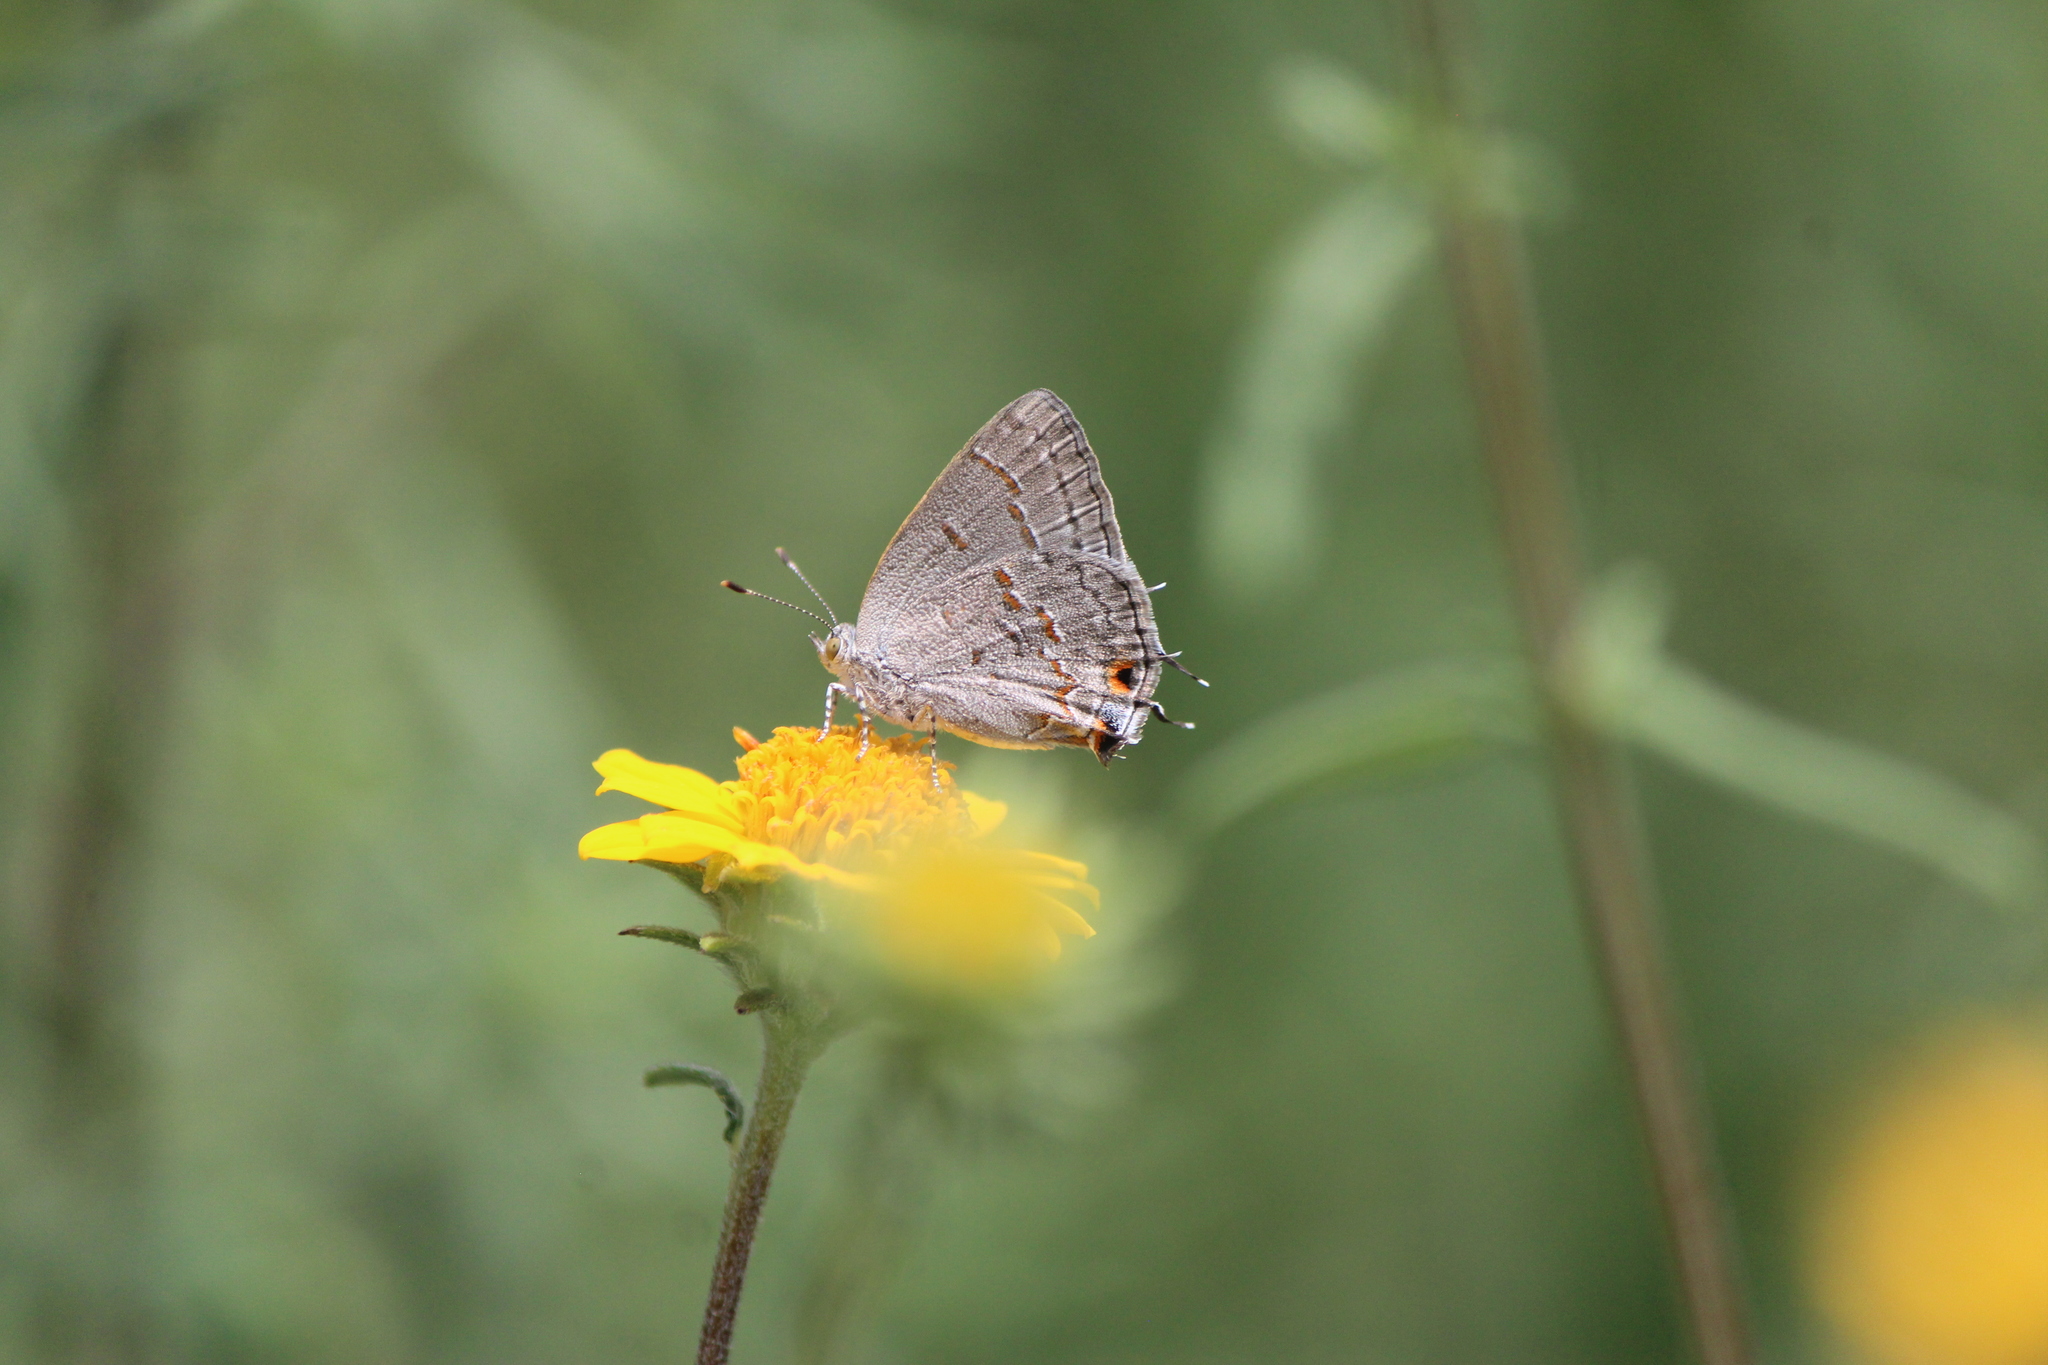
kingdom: Animalia
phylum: Arthropoda
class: Insecta
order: Lepidoptera
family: Lycaenidae
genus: Ministrymon
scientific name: Ministrymon leda
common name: Leda ministreak
